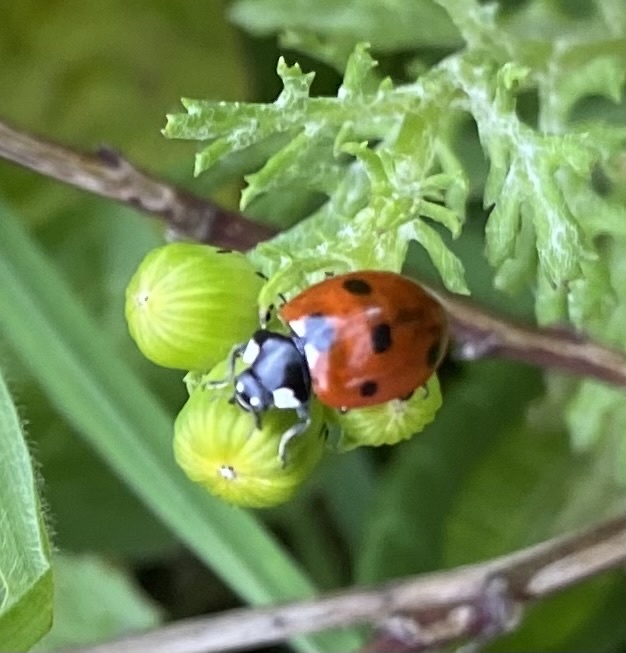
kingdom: Animalia
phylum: Arthropoda
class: Insecta
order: Coleoptera
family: Coccinellidae
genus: Coccinella
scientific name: Coccinella septempunctata
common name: Sevenspotted lady beetle
